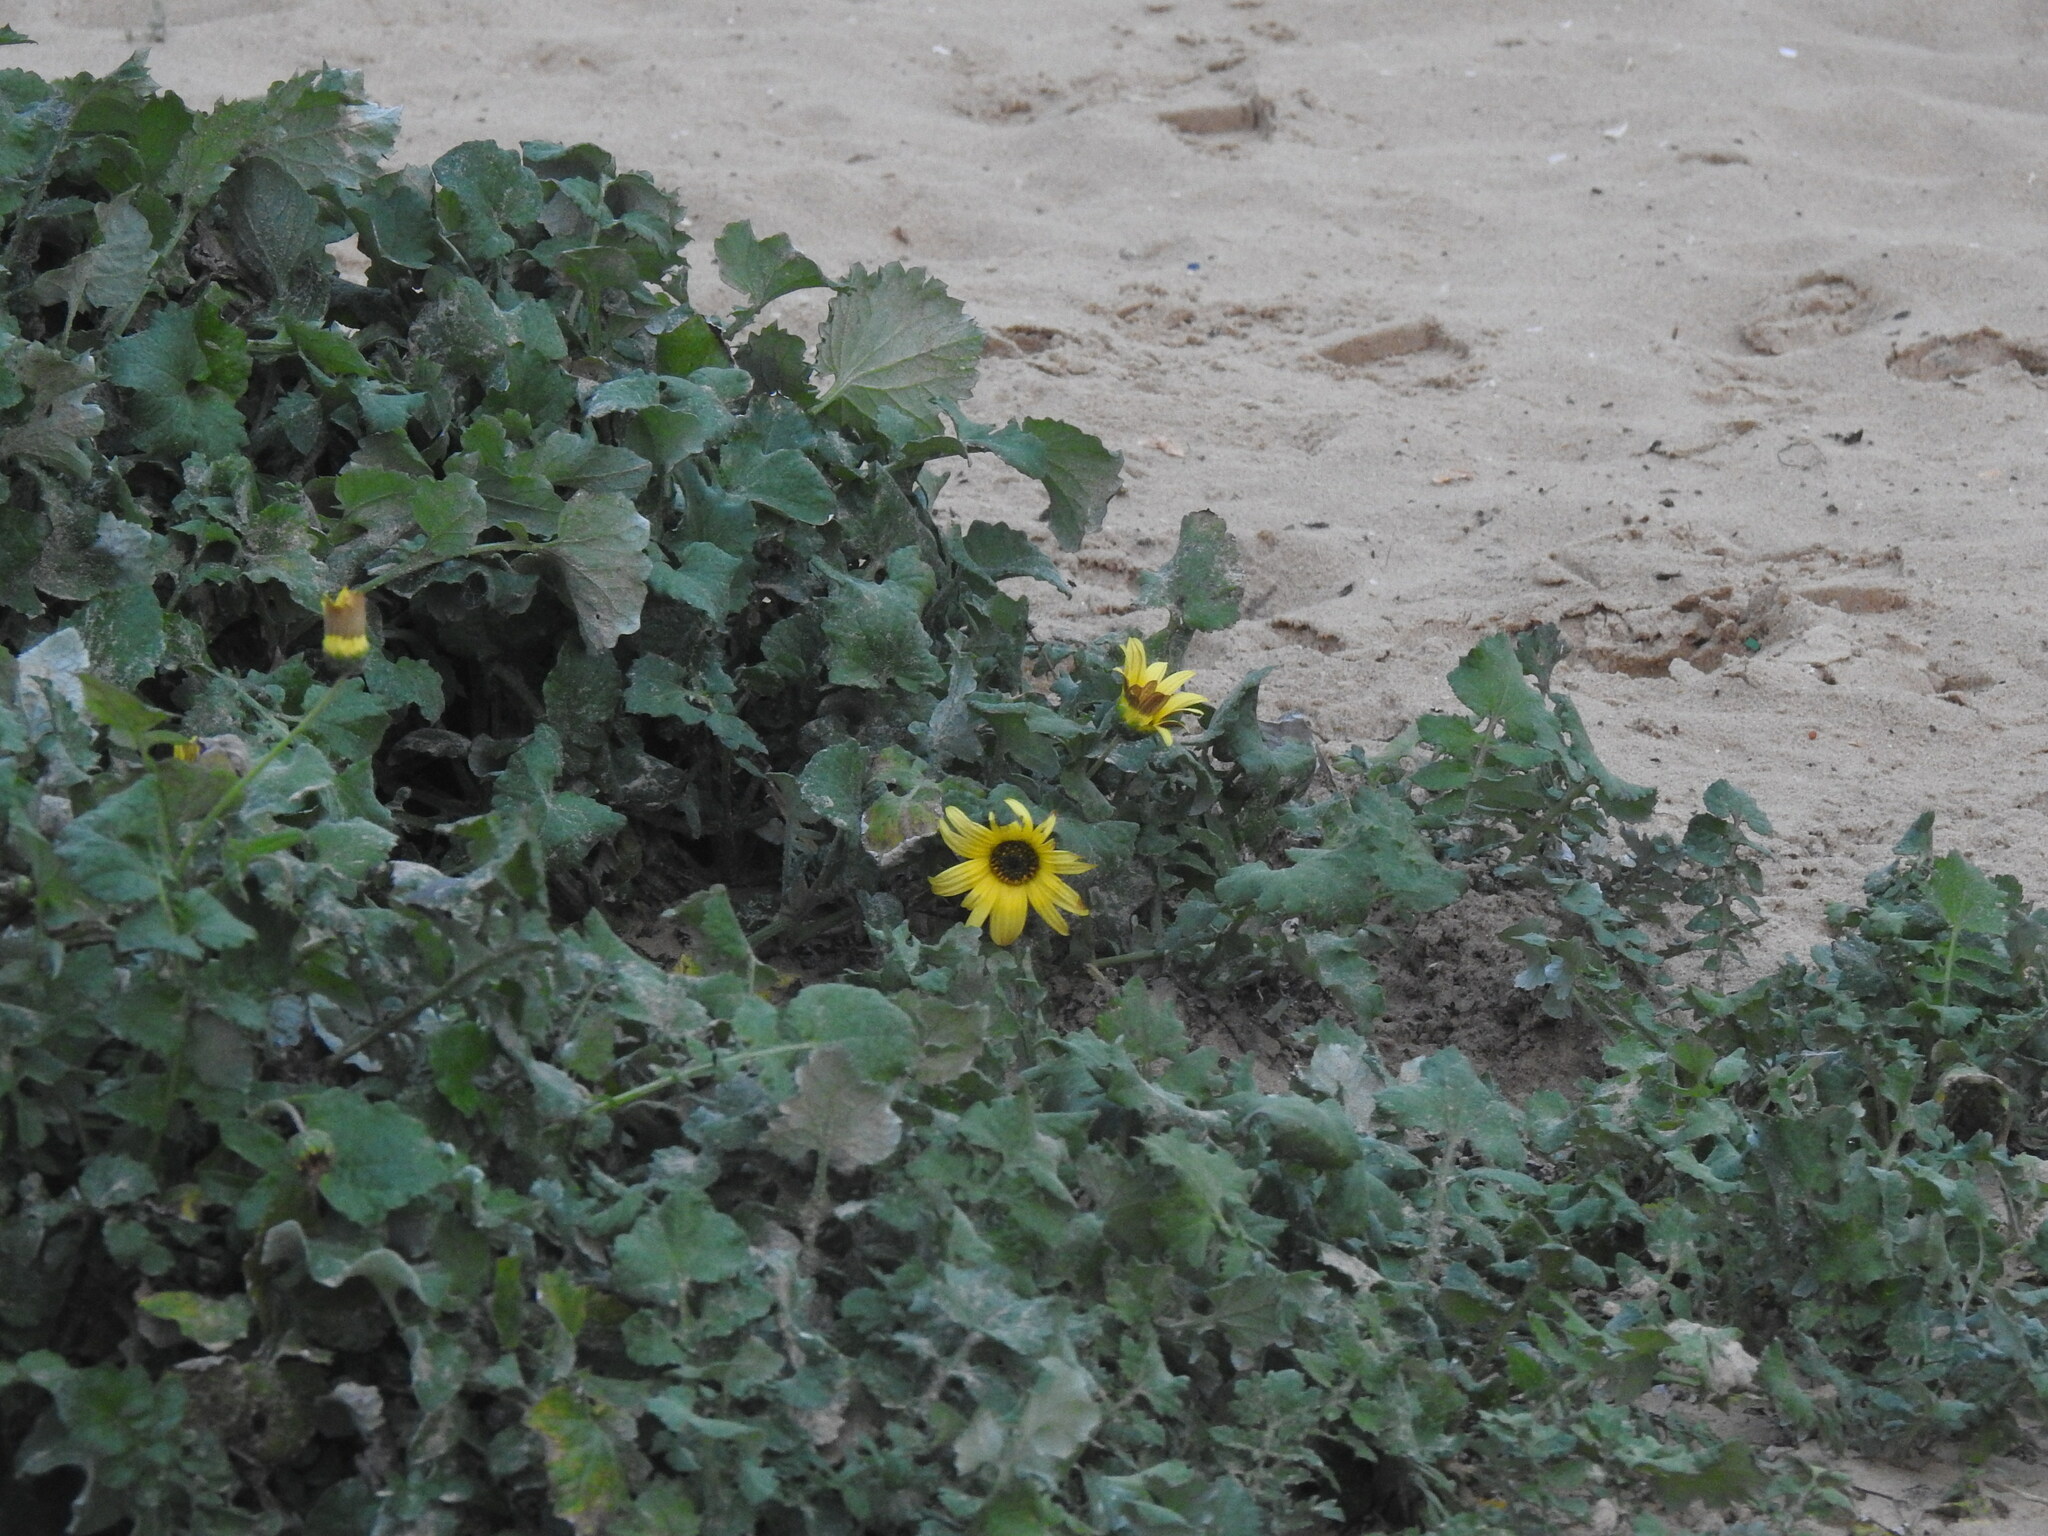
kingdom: Plantae
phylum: Tracheophyta
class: Magnoliopsida
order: Asterales
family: Asteraceae
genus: Arctotheca
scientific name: Arctotheca calendula
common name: Capeweed
